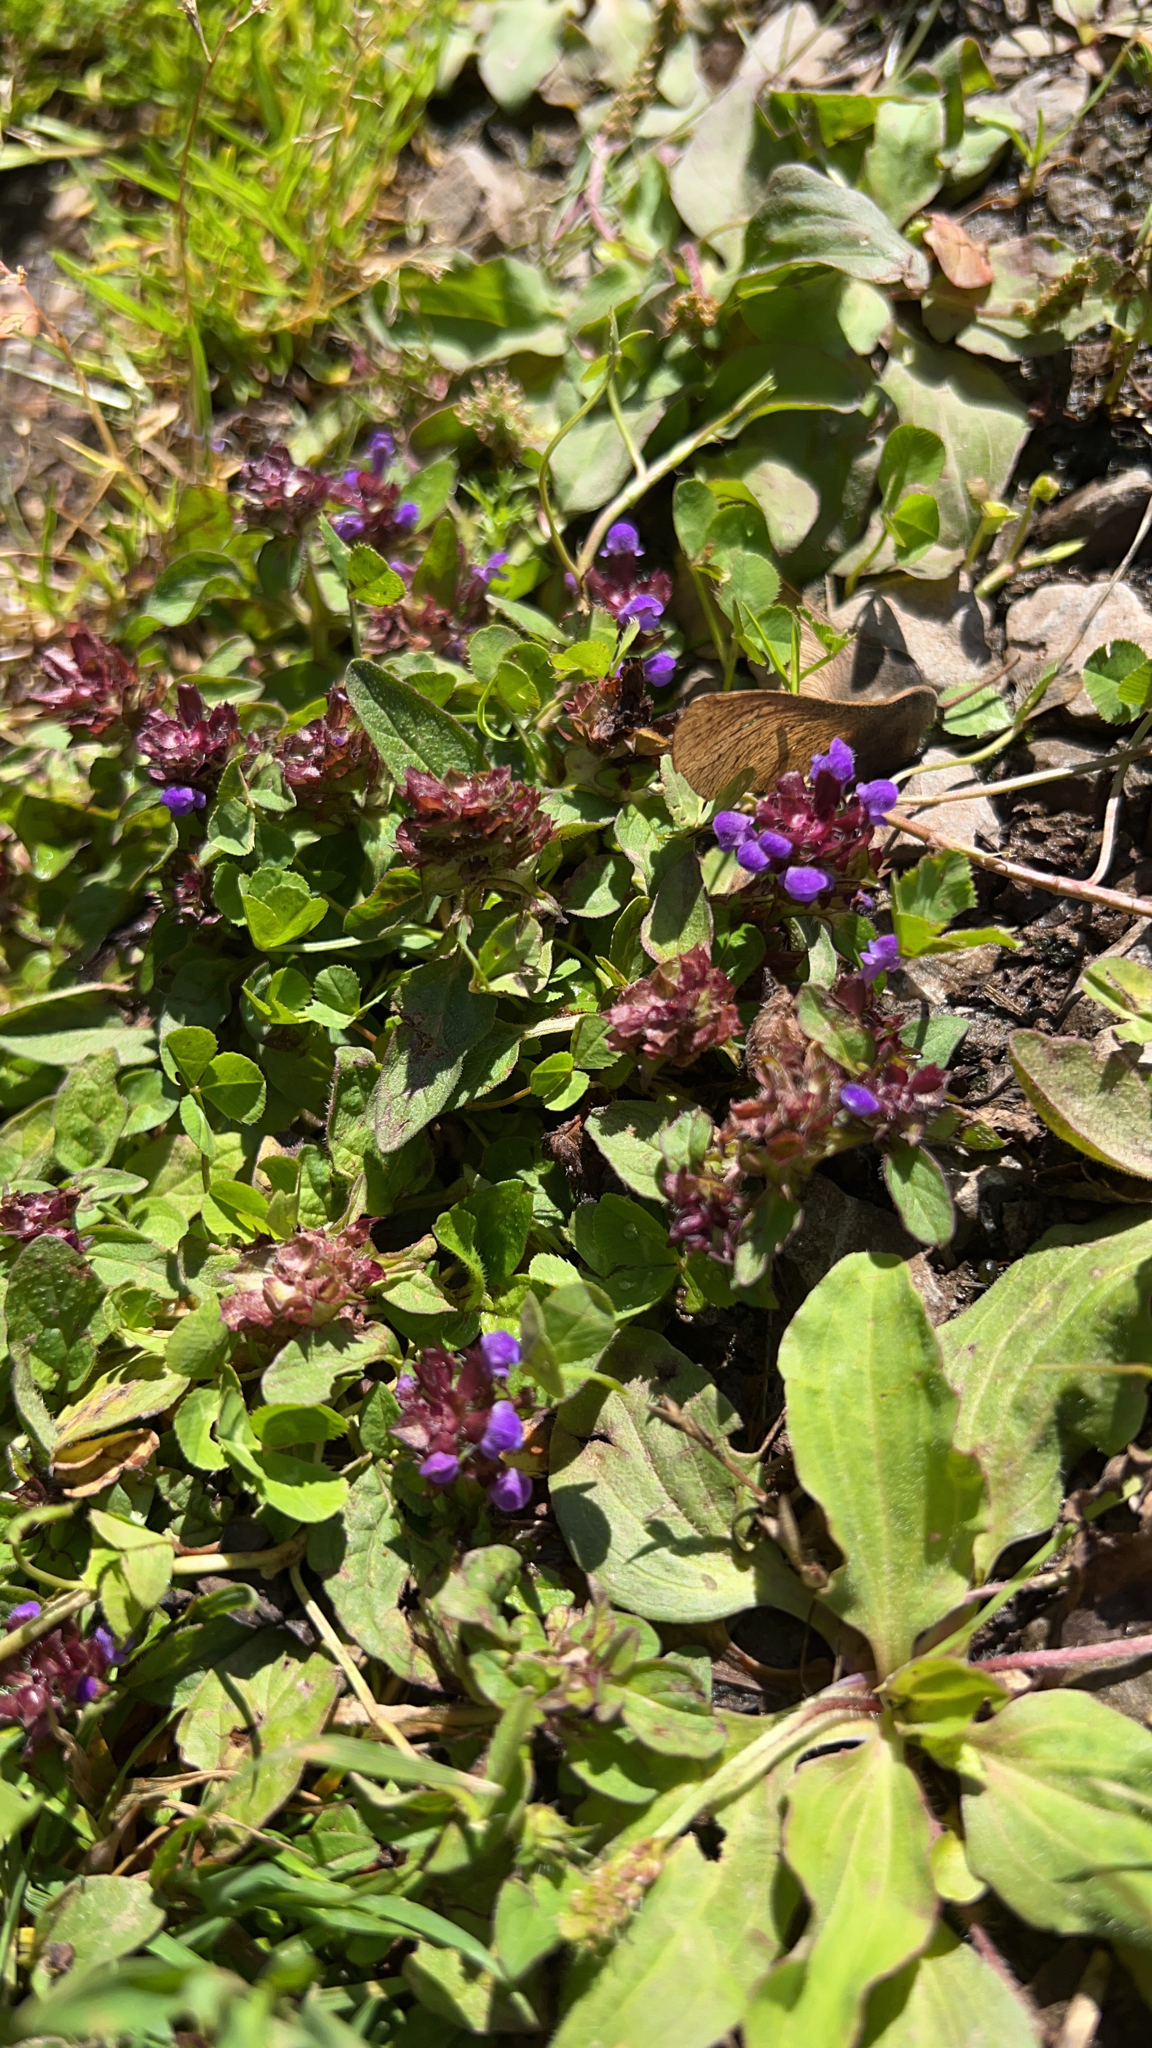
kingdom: Plantae
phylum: Tracheophyta
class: Magnoliopsida
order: Lamiales
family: Lamiaceae
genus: Prunella
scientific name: Prunella vulgaris
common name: Heal-all
